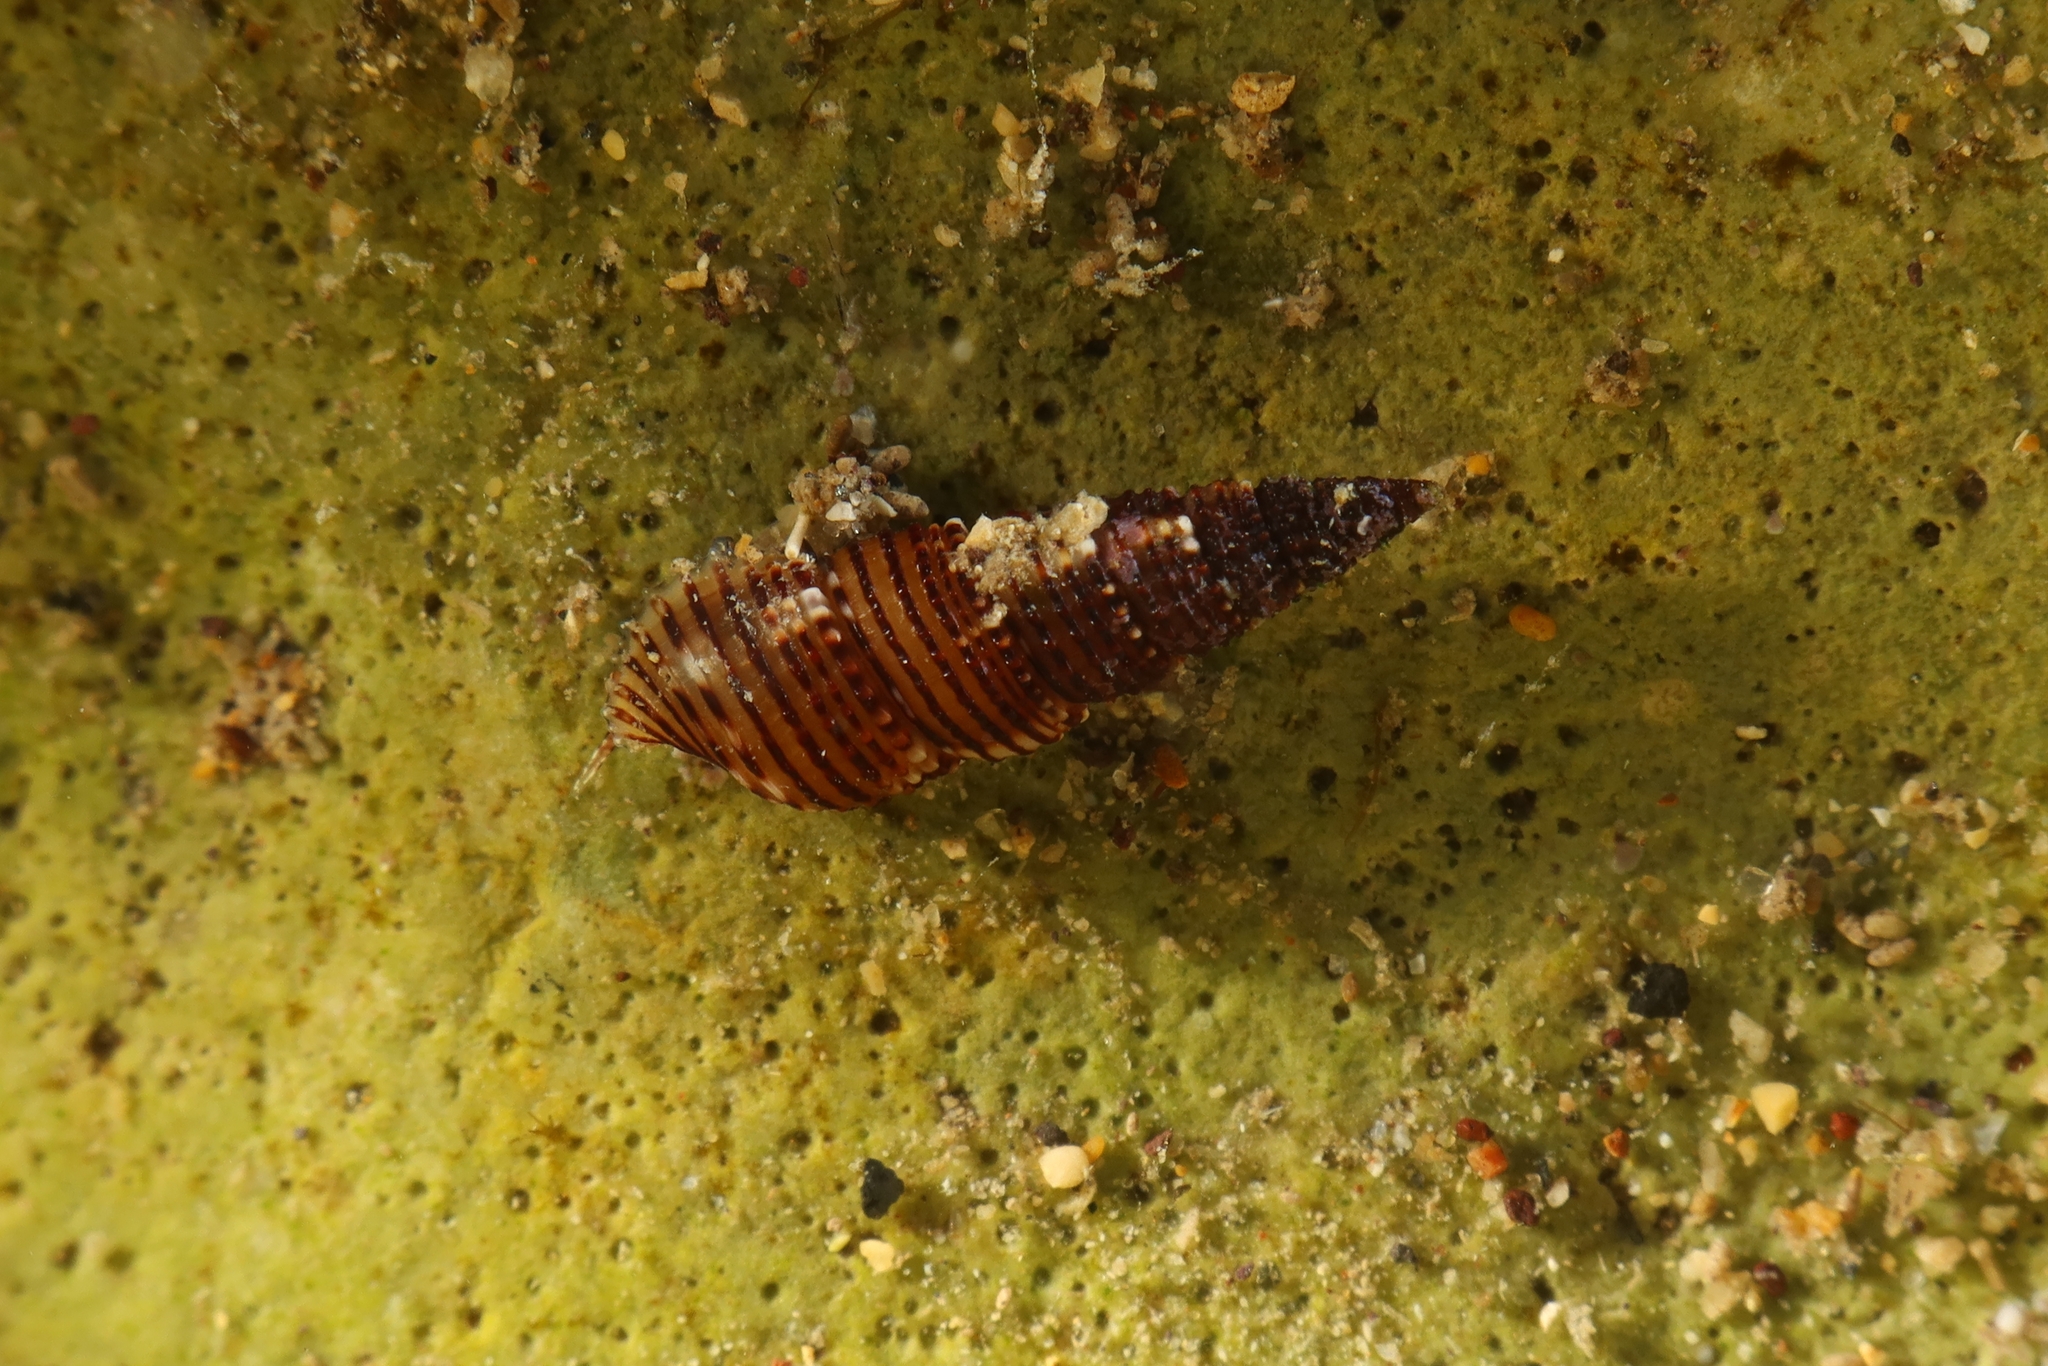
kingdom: Animalia
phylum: Mollusca
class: Gastropoda
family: Cerithiidae
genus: Bittium
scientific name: Bittium latreillii
